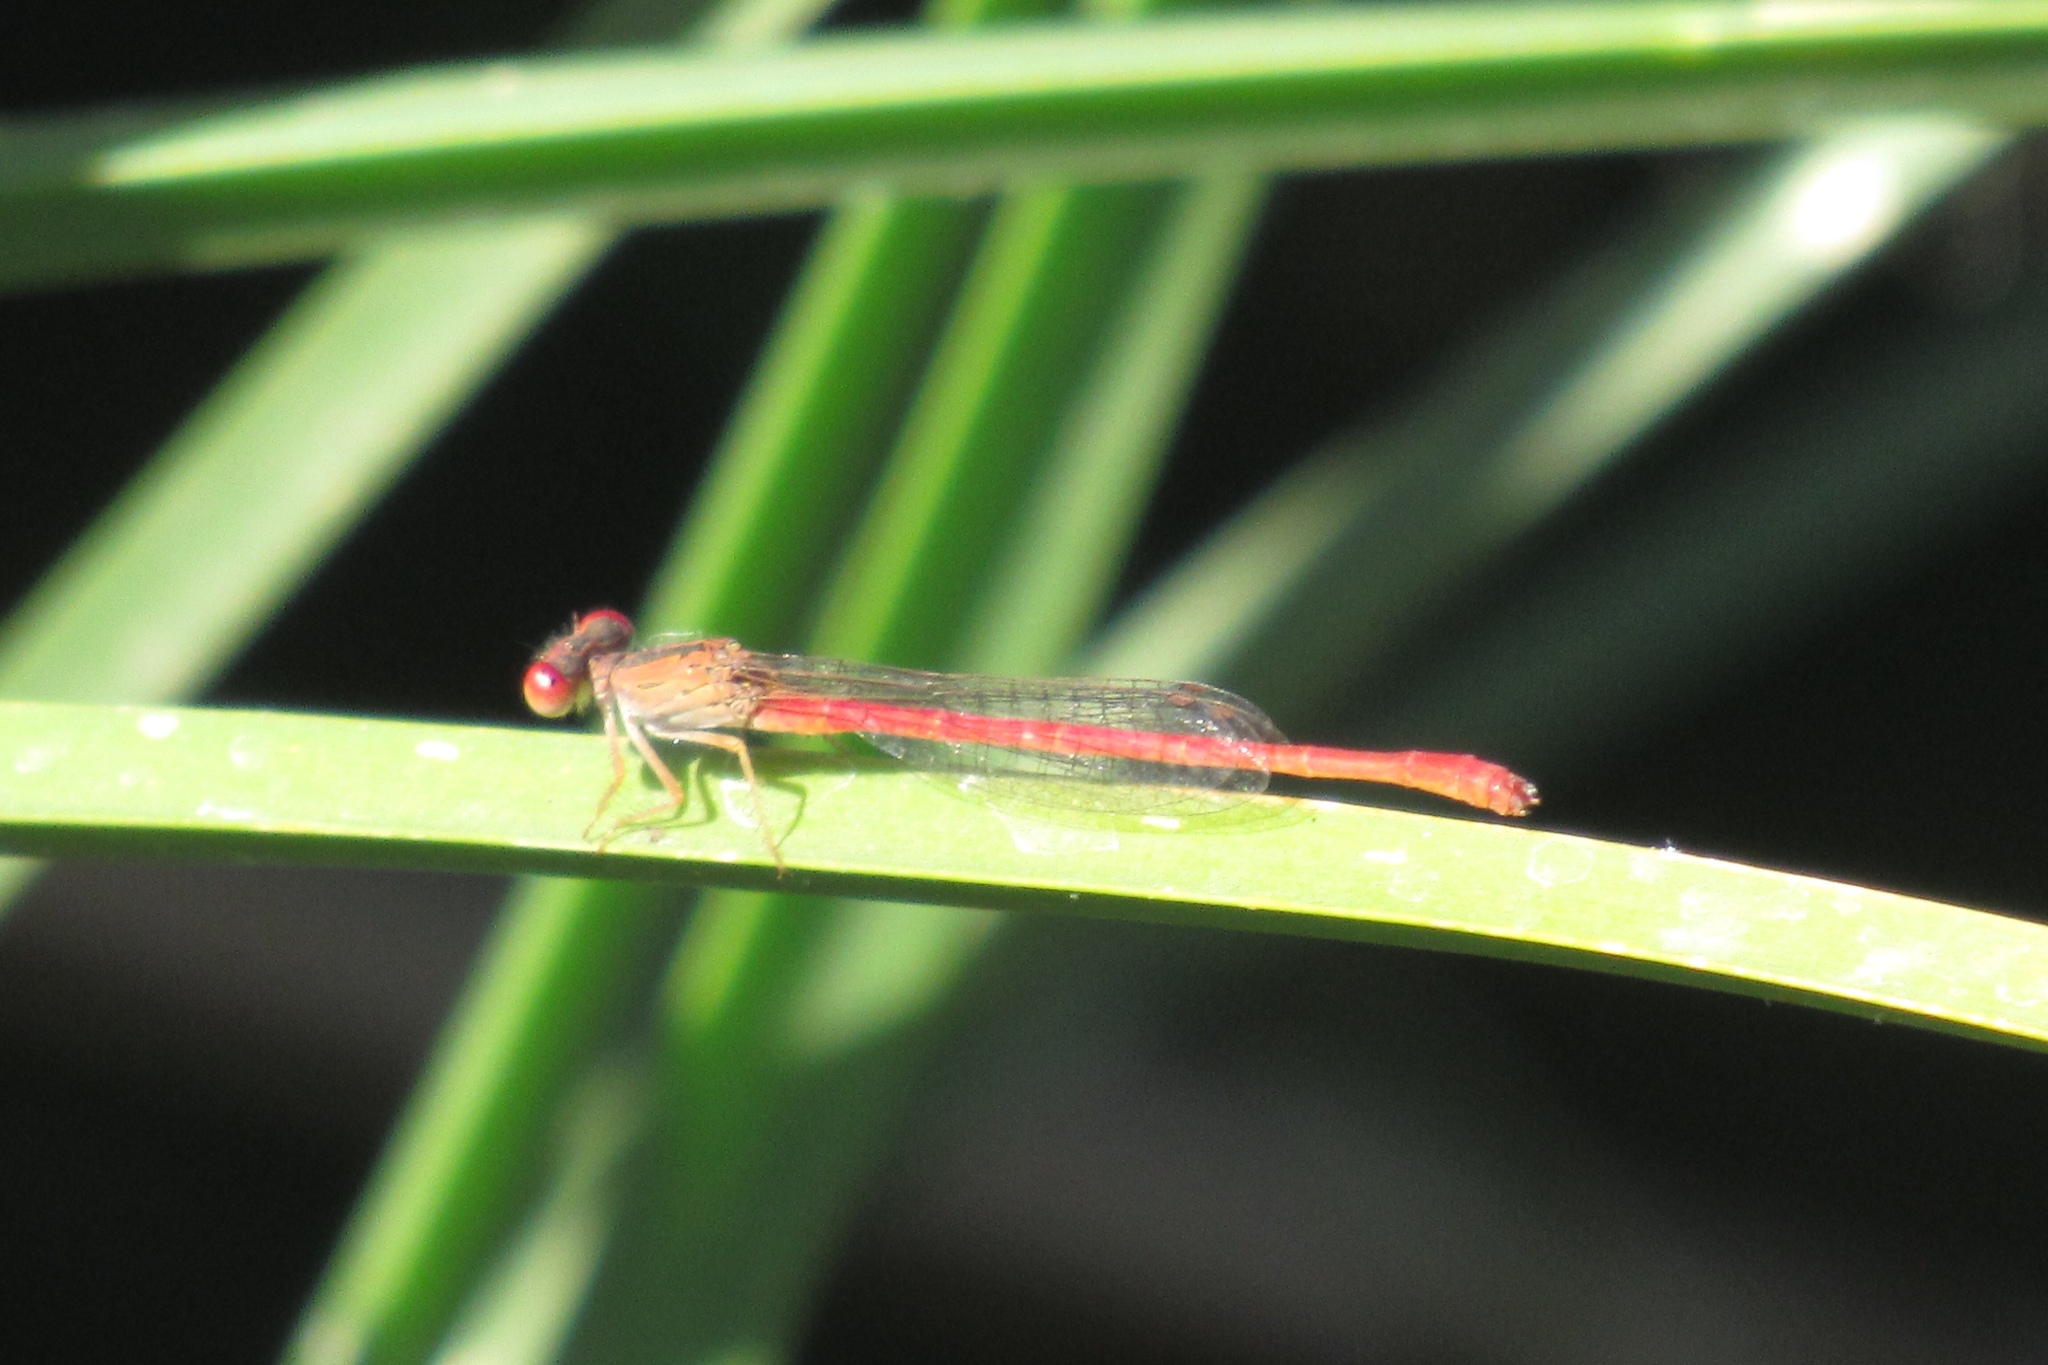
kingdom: Animalia
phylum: Arthropoda
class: Insecta
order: Odonata
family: Coenagrionidae
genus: Telebasis
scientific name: Telebasis salva
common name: Desert firetail
